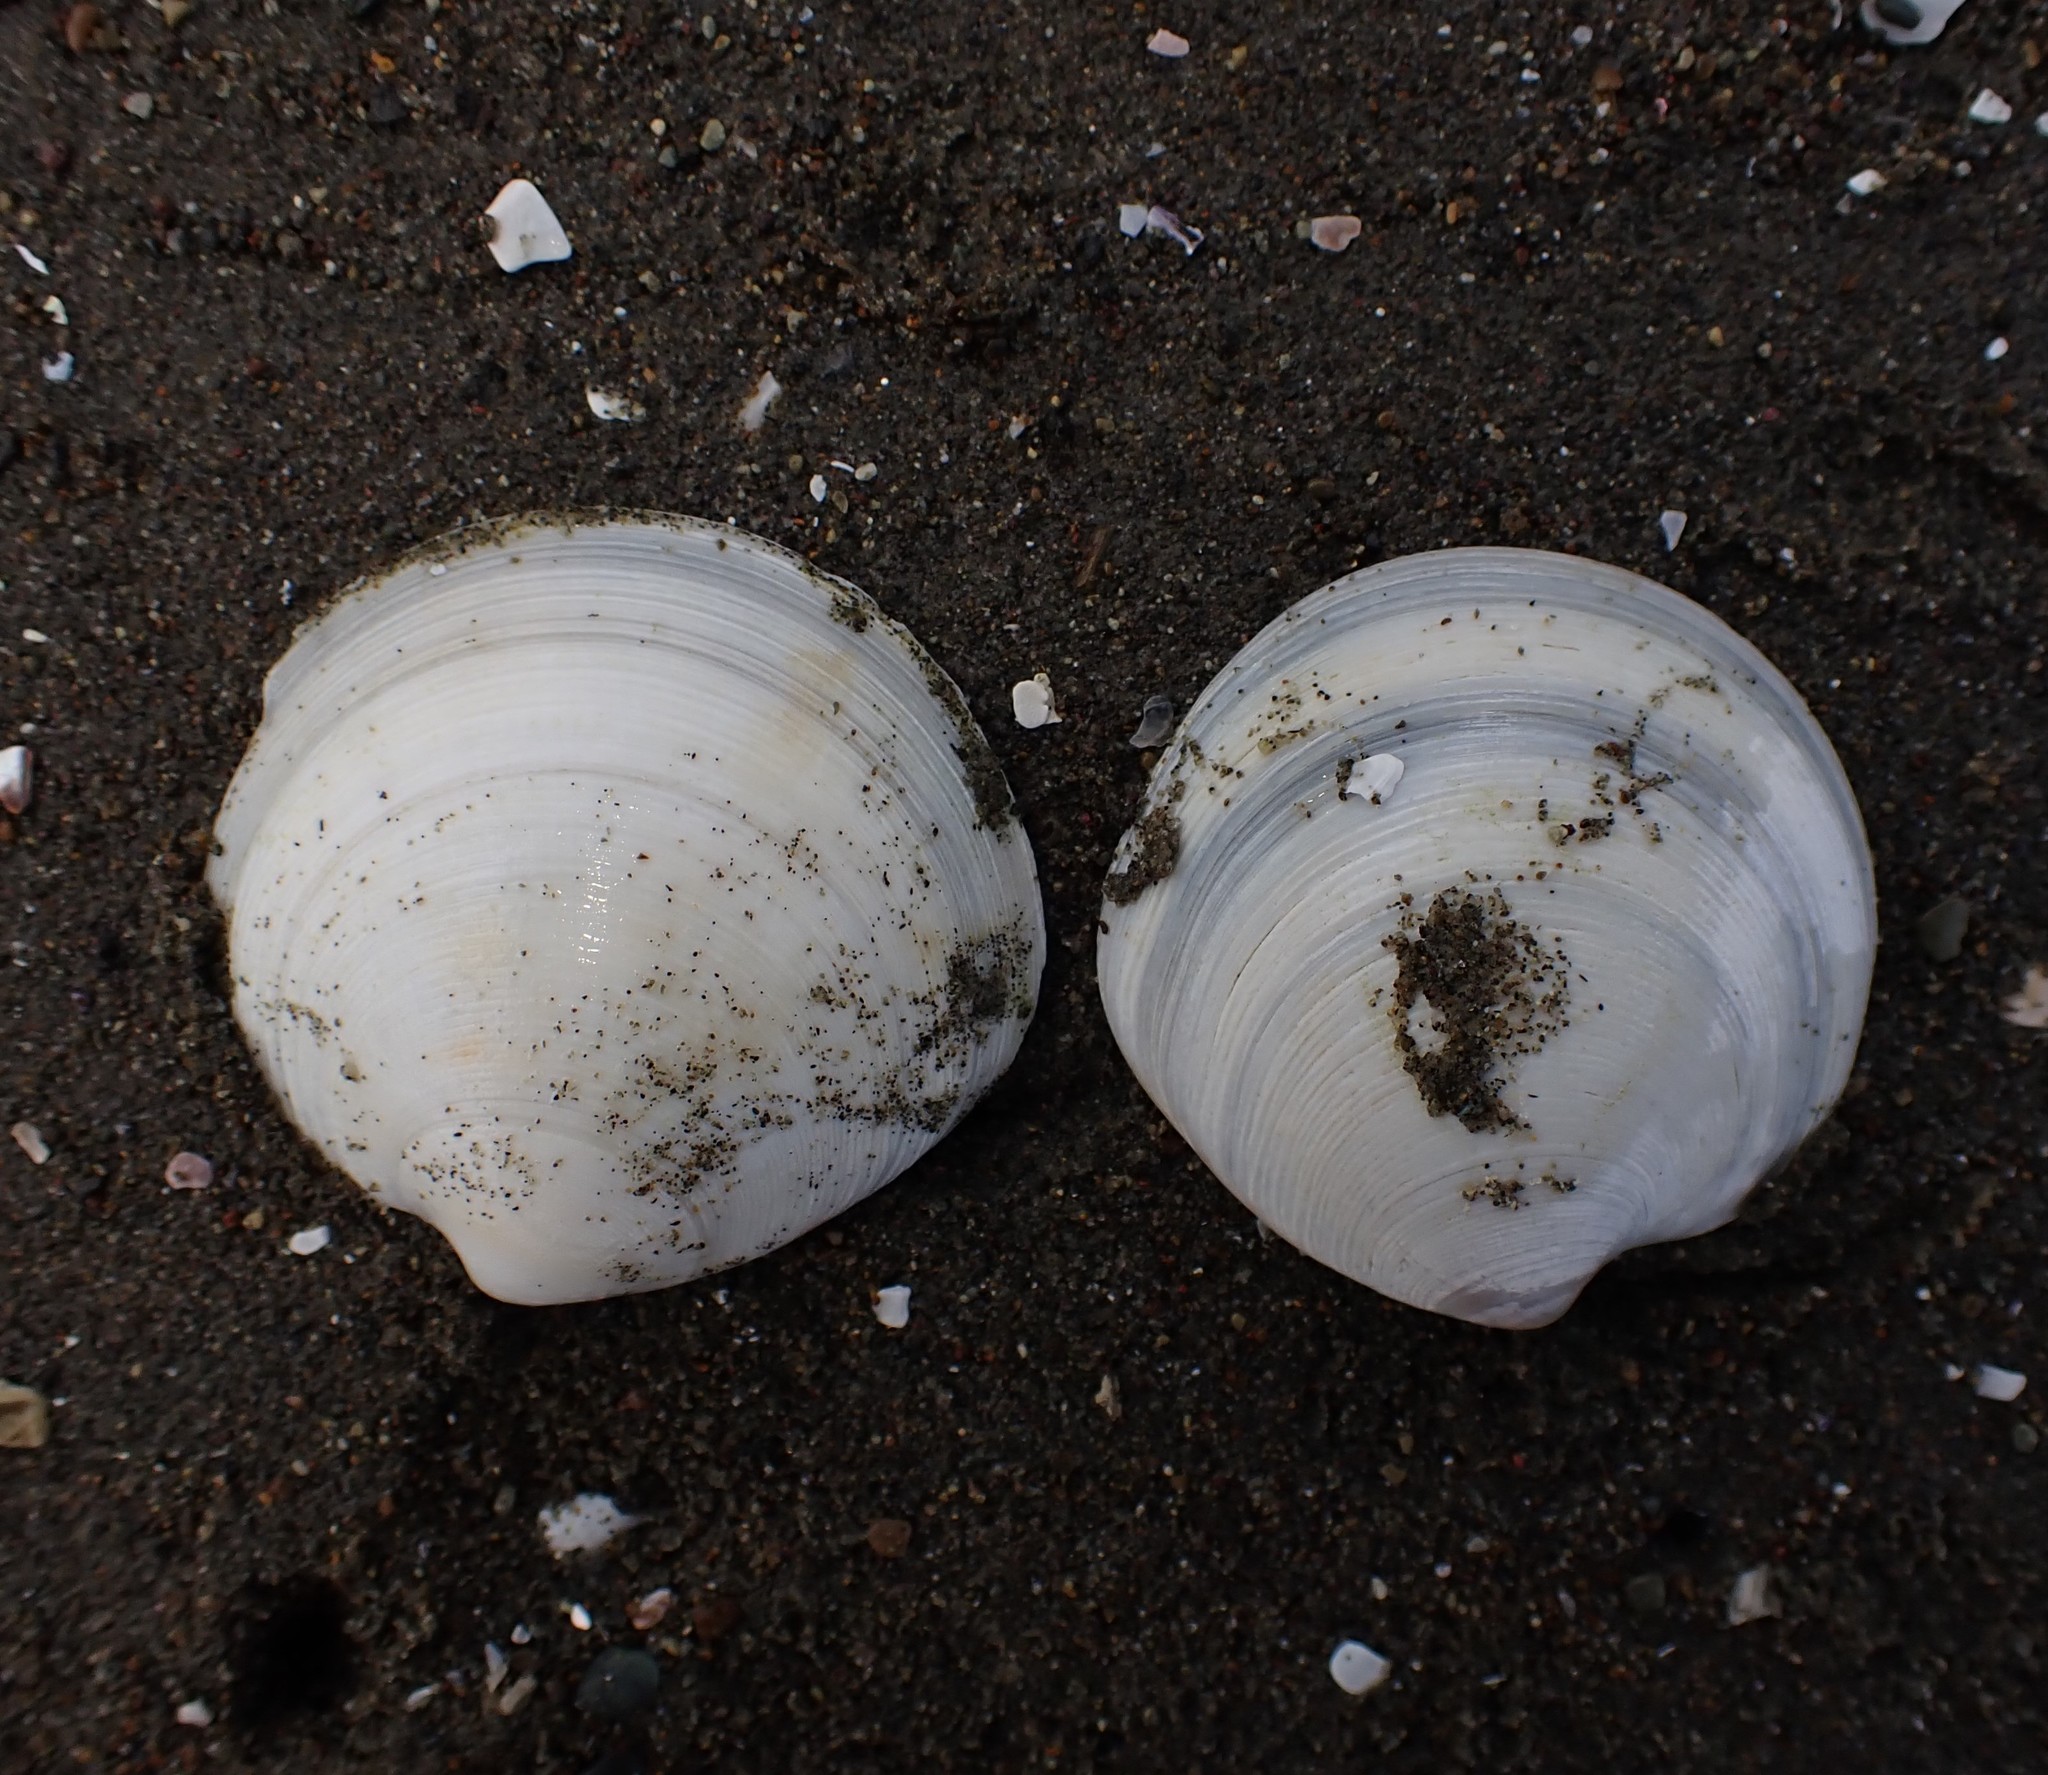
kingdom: Animalia
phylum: Mollusca
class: Bivalvia
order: Venerida
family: Veneridae
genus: Dosinia
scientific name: Dosinia subrosea
